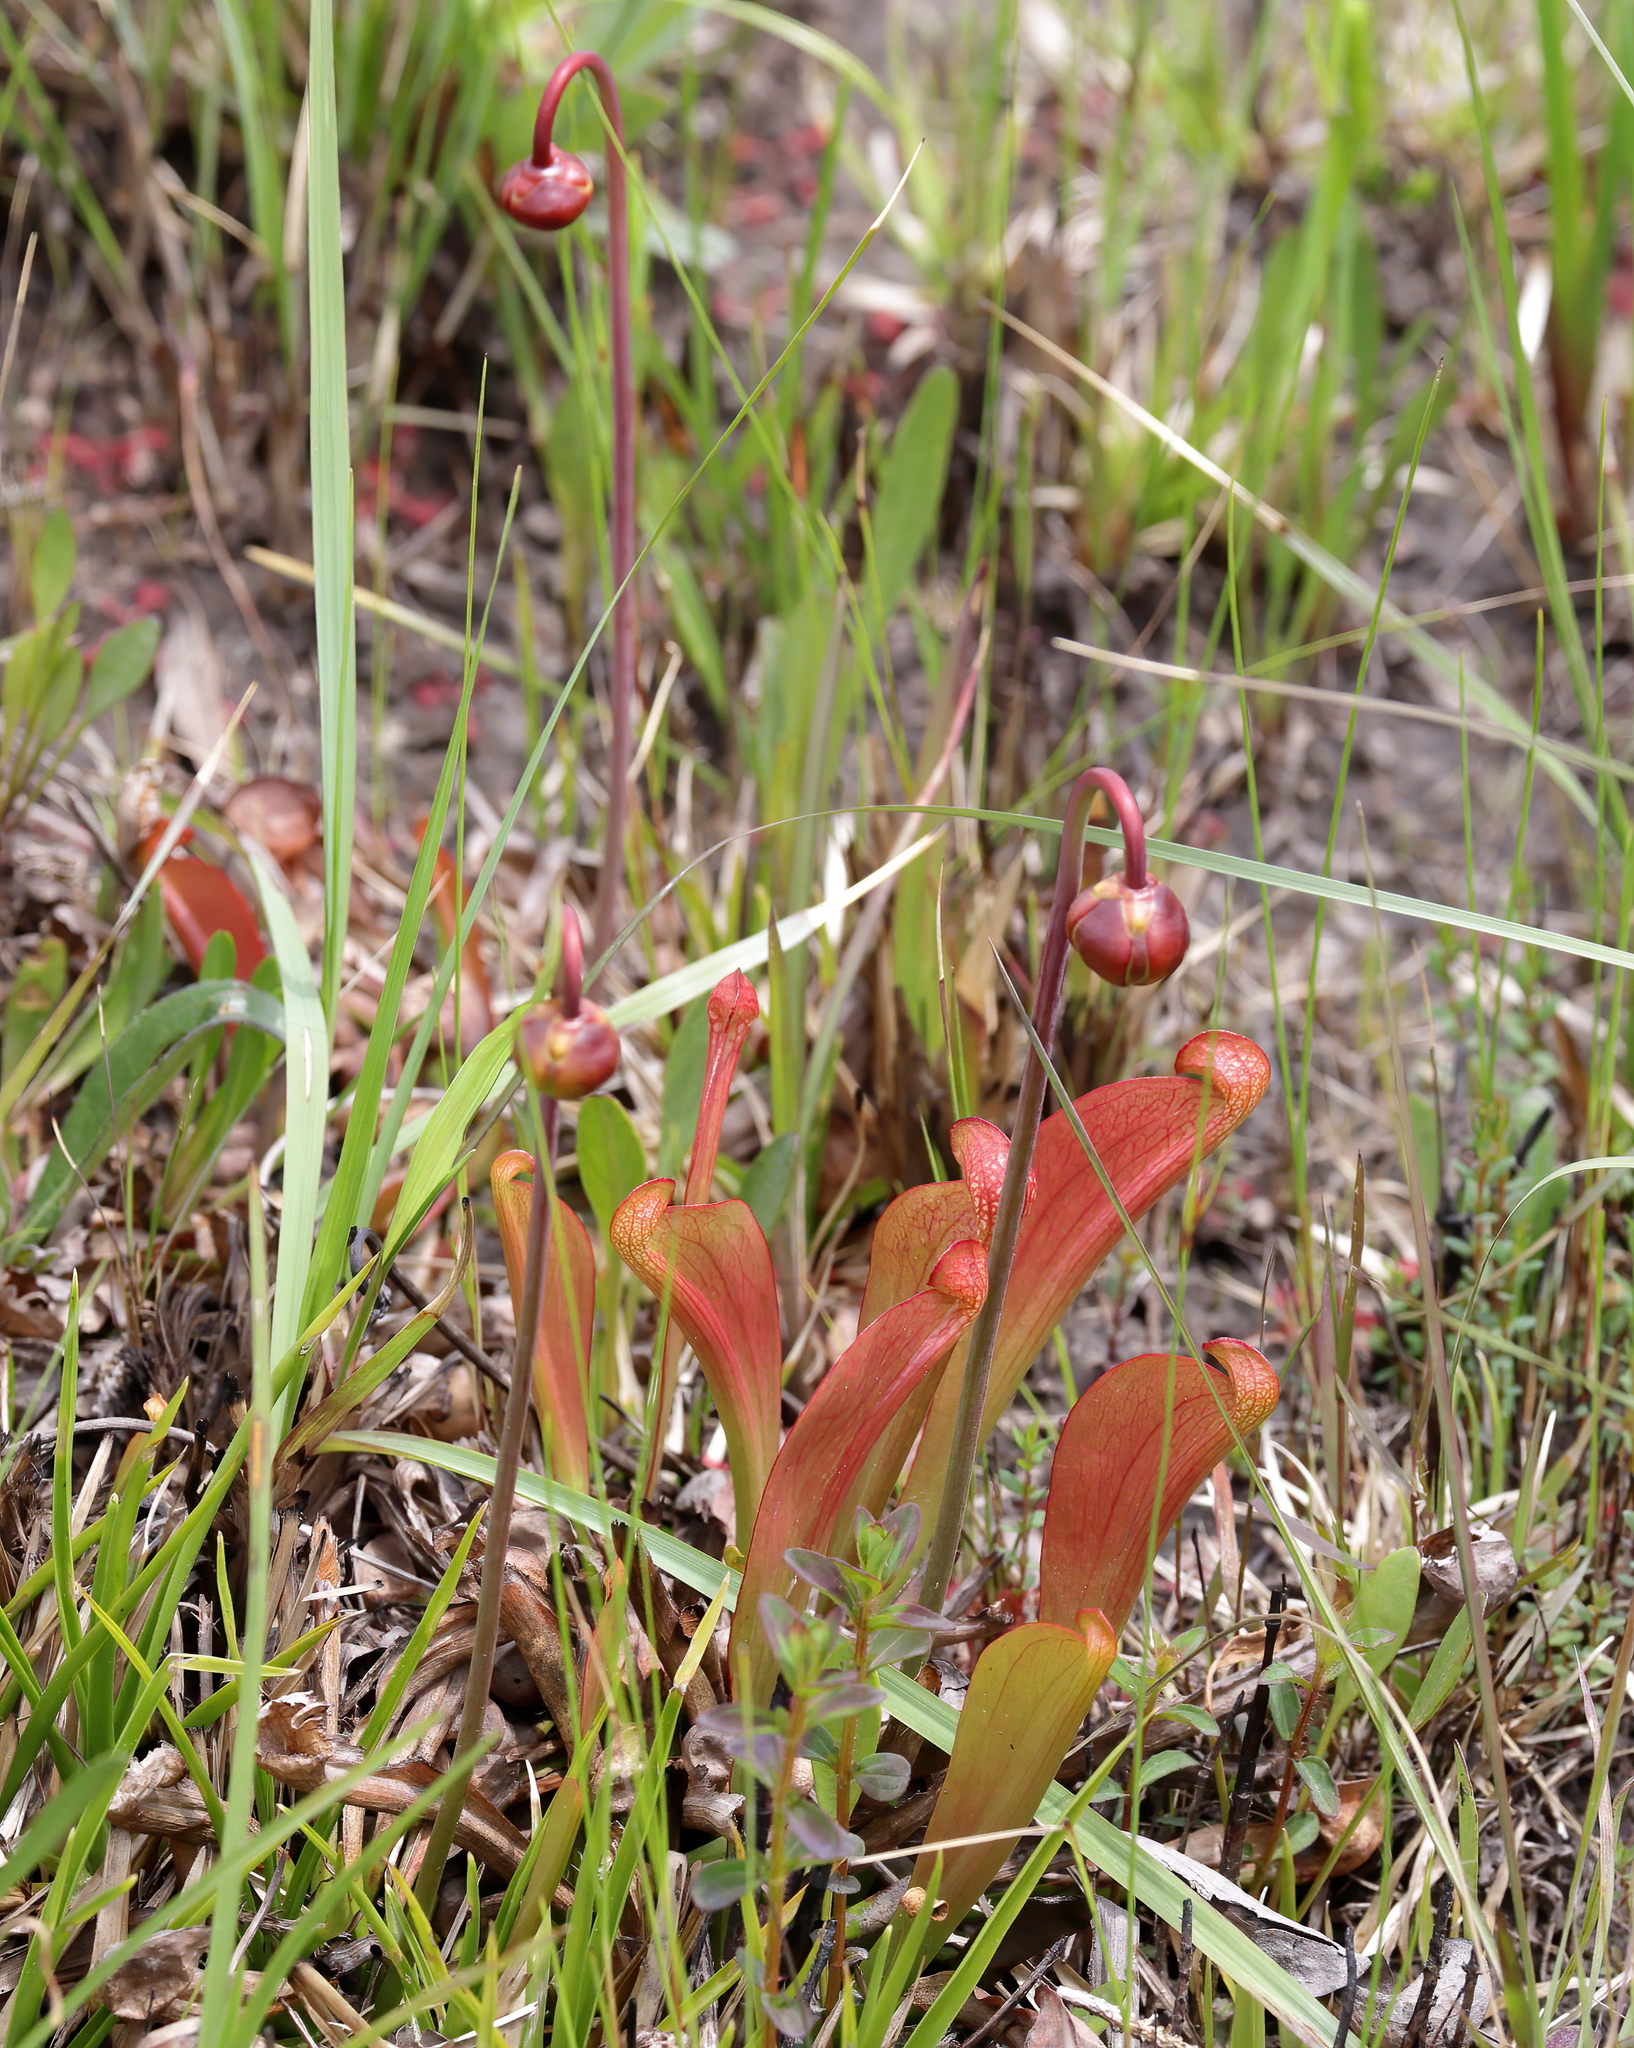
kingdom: Plantae
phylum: Tracheophyta
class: Magnoliopsida
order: Ericales
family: Sarraceniaceae
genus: Sarracenia
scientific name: Sarracenia psittacina
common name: Parrot pitcherplant
